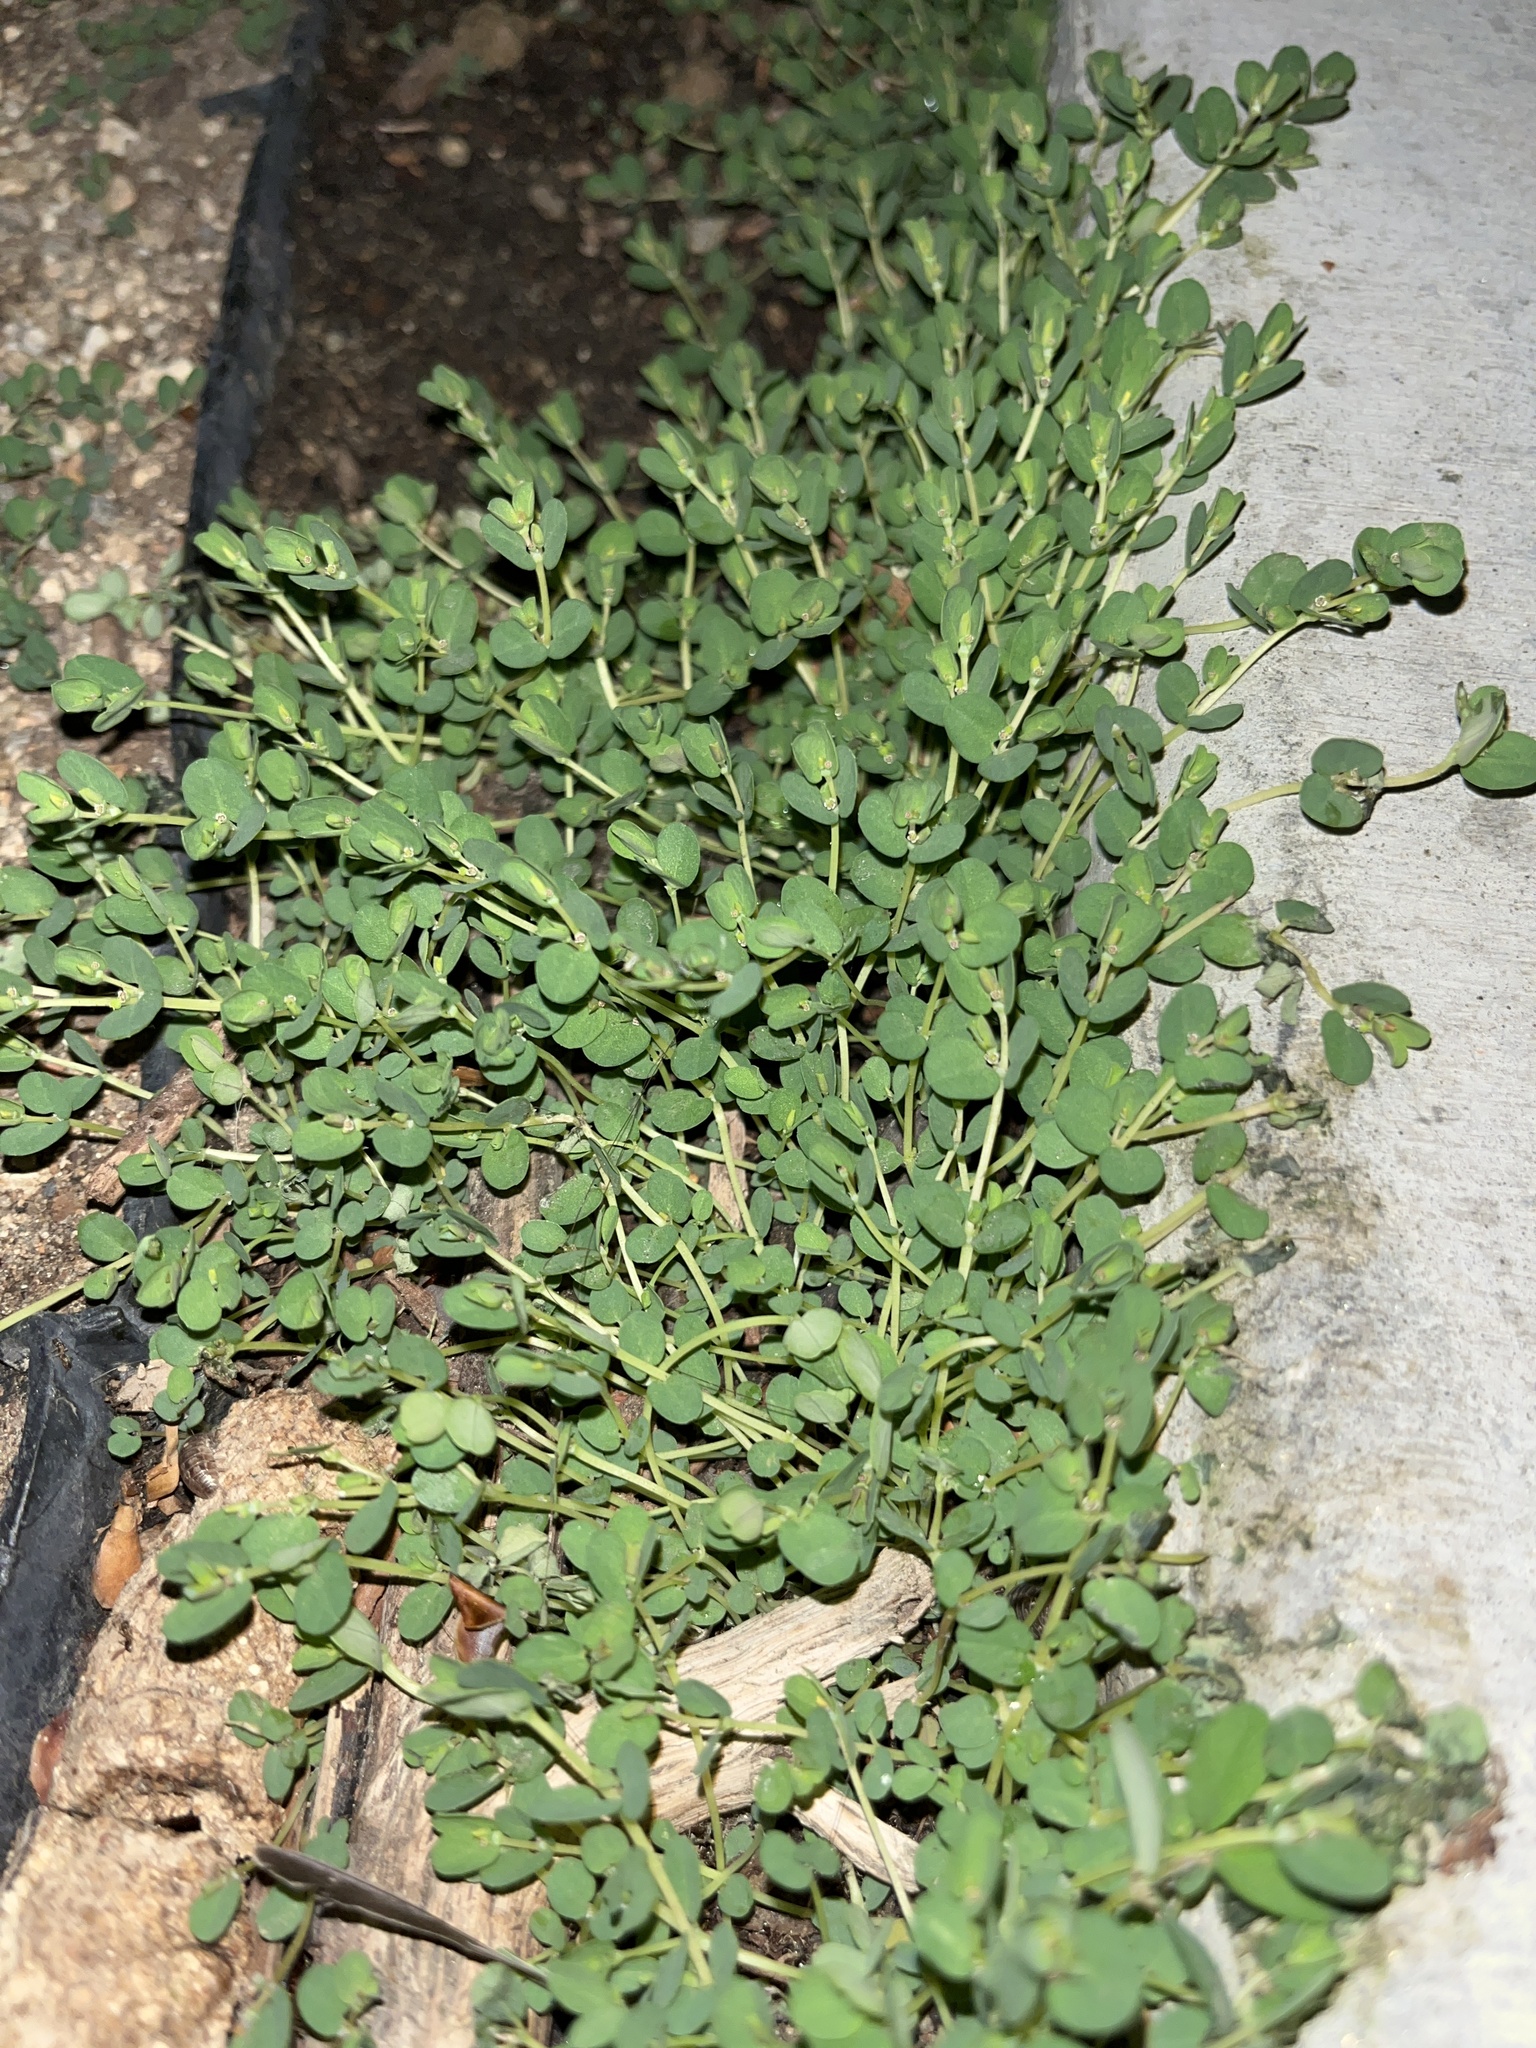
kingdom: Plantae
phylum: Tracheophyta
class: Magnoliopsida
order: Malpighiales
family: Euphorbiaceae
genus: Euphorbia
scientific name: Euphorbia serpens
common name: Matted sandmat
